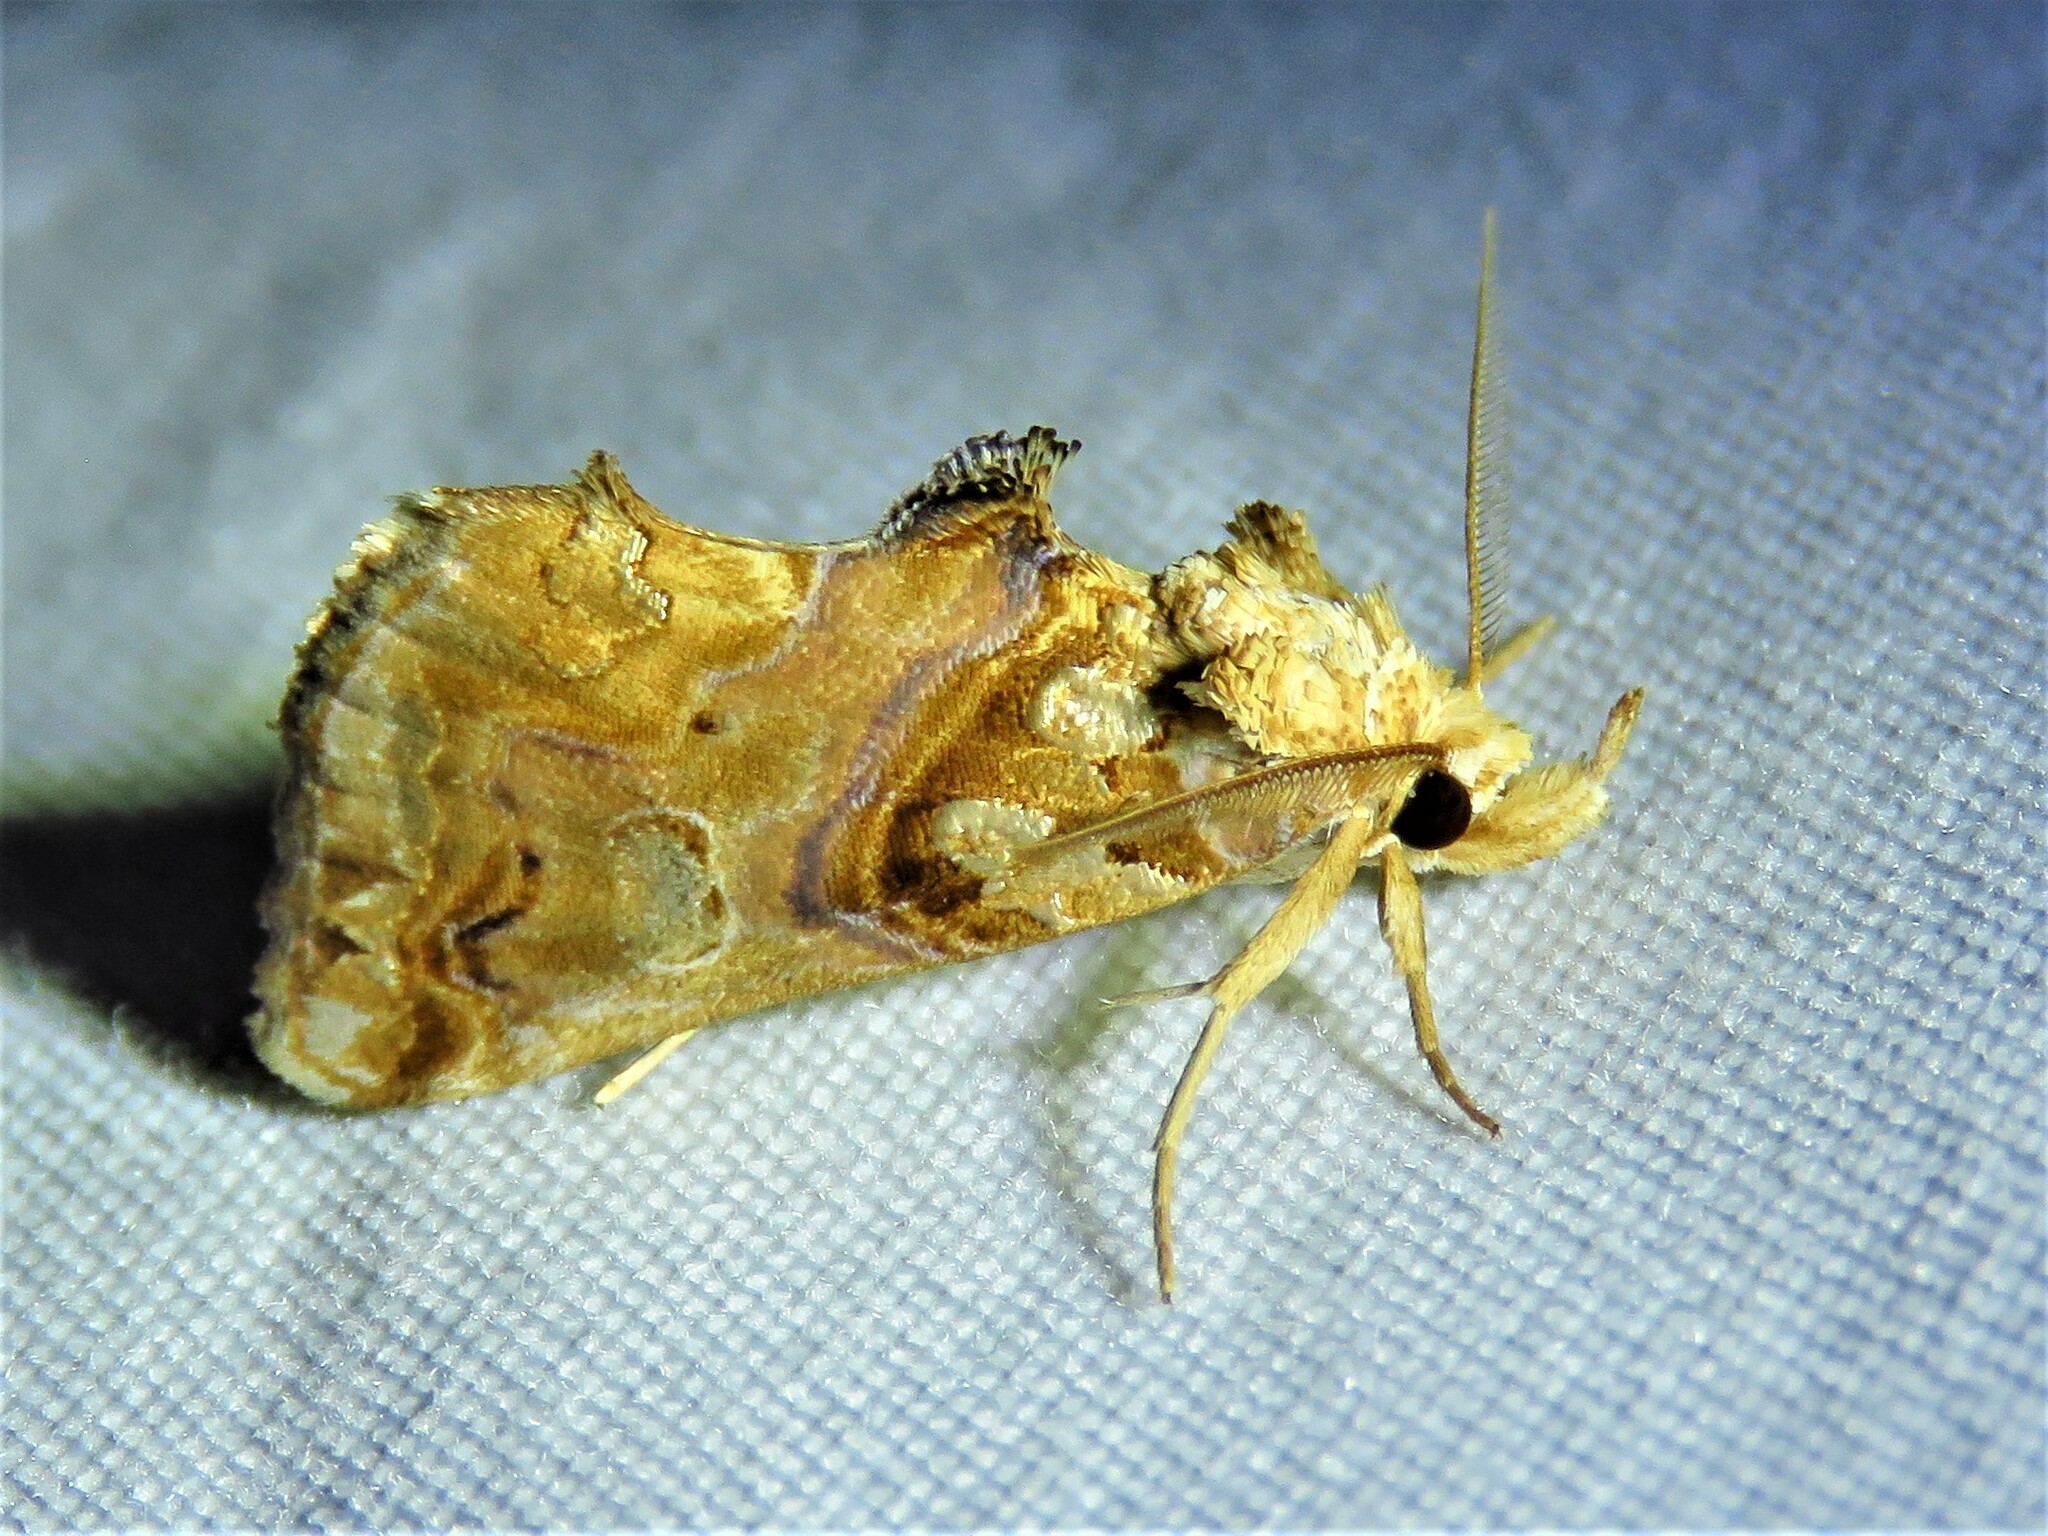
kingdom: Animalia
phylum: Arthropoda
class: Insecta
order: Lepidoptera
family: Erebidae
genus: Plusiodonta
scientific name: Plusiodonta compressipalpis
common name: Moonseed moth
